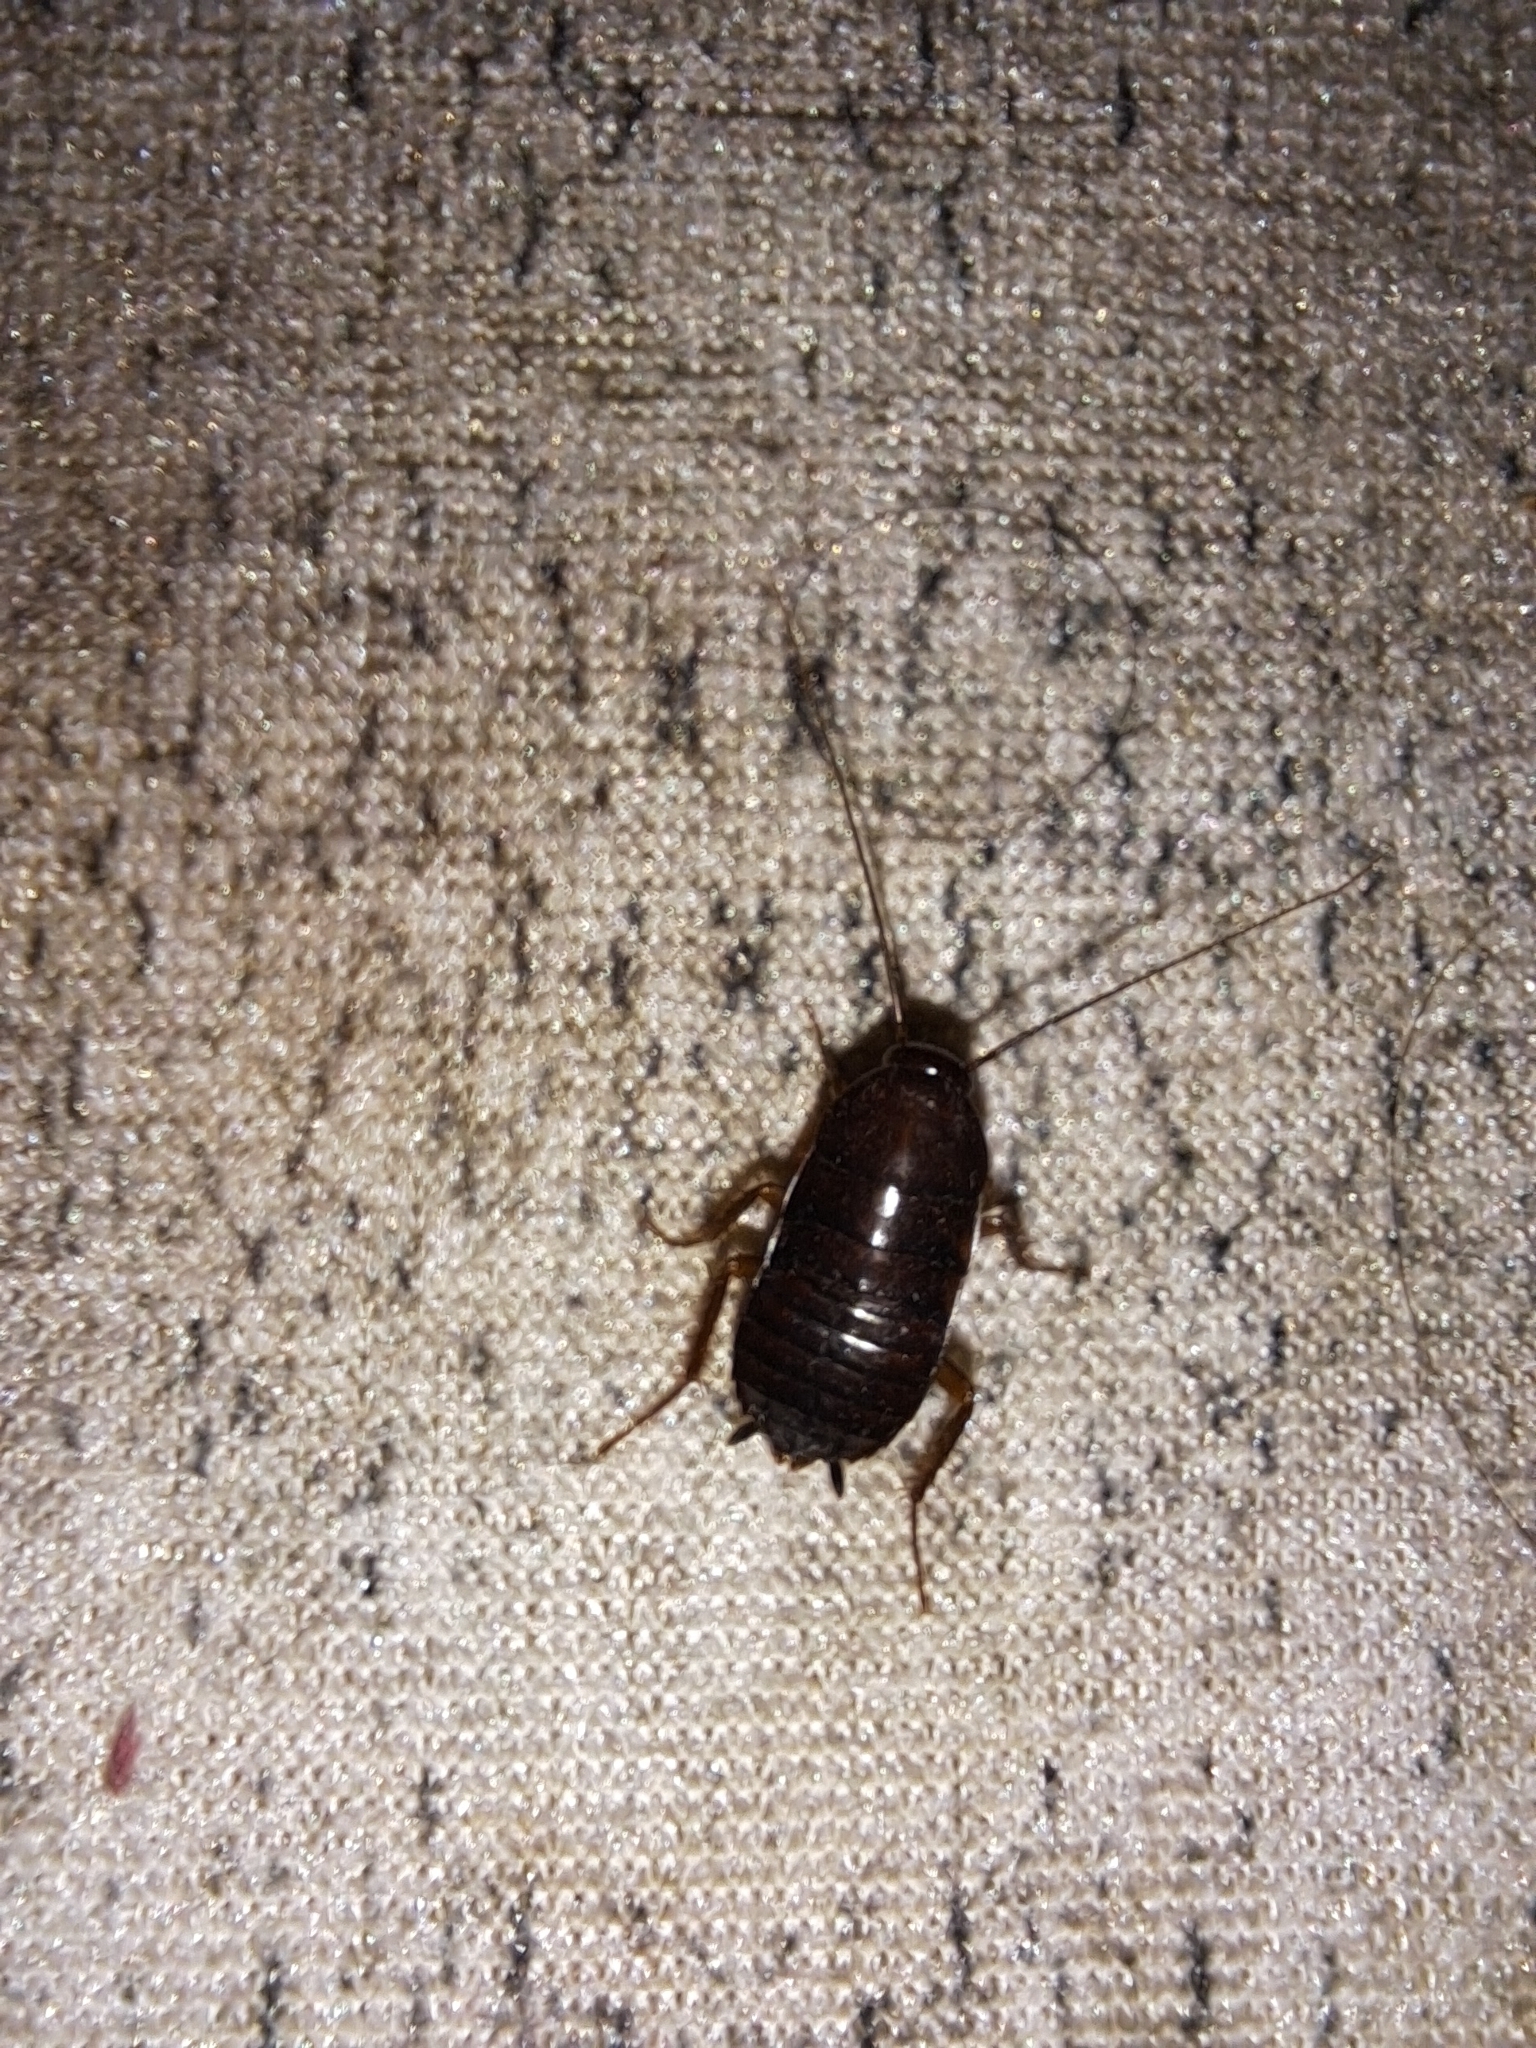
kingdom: Animalia
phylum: Arthropoda
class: Insecta
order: Blattodea
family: Blattidae
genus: Blatta
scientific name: Blatta orientalis
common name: Oriental cockroach
